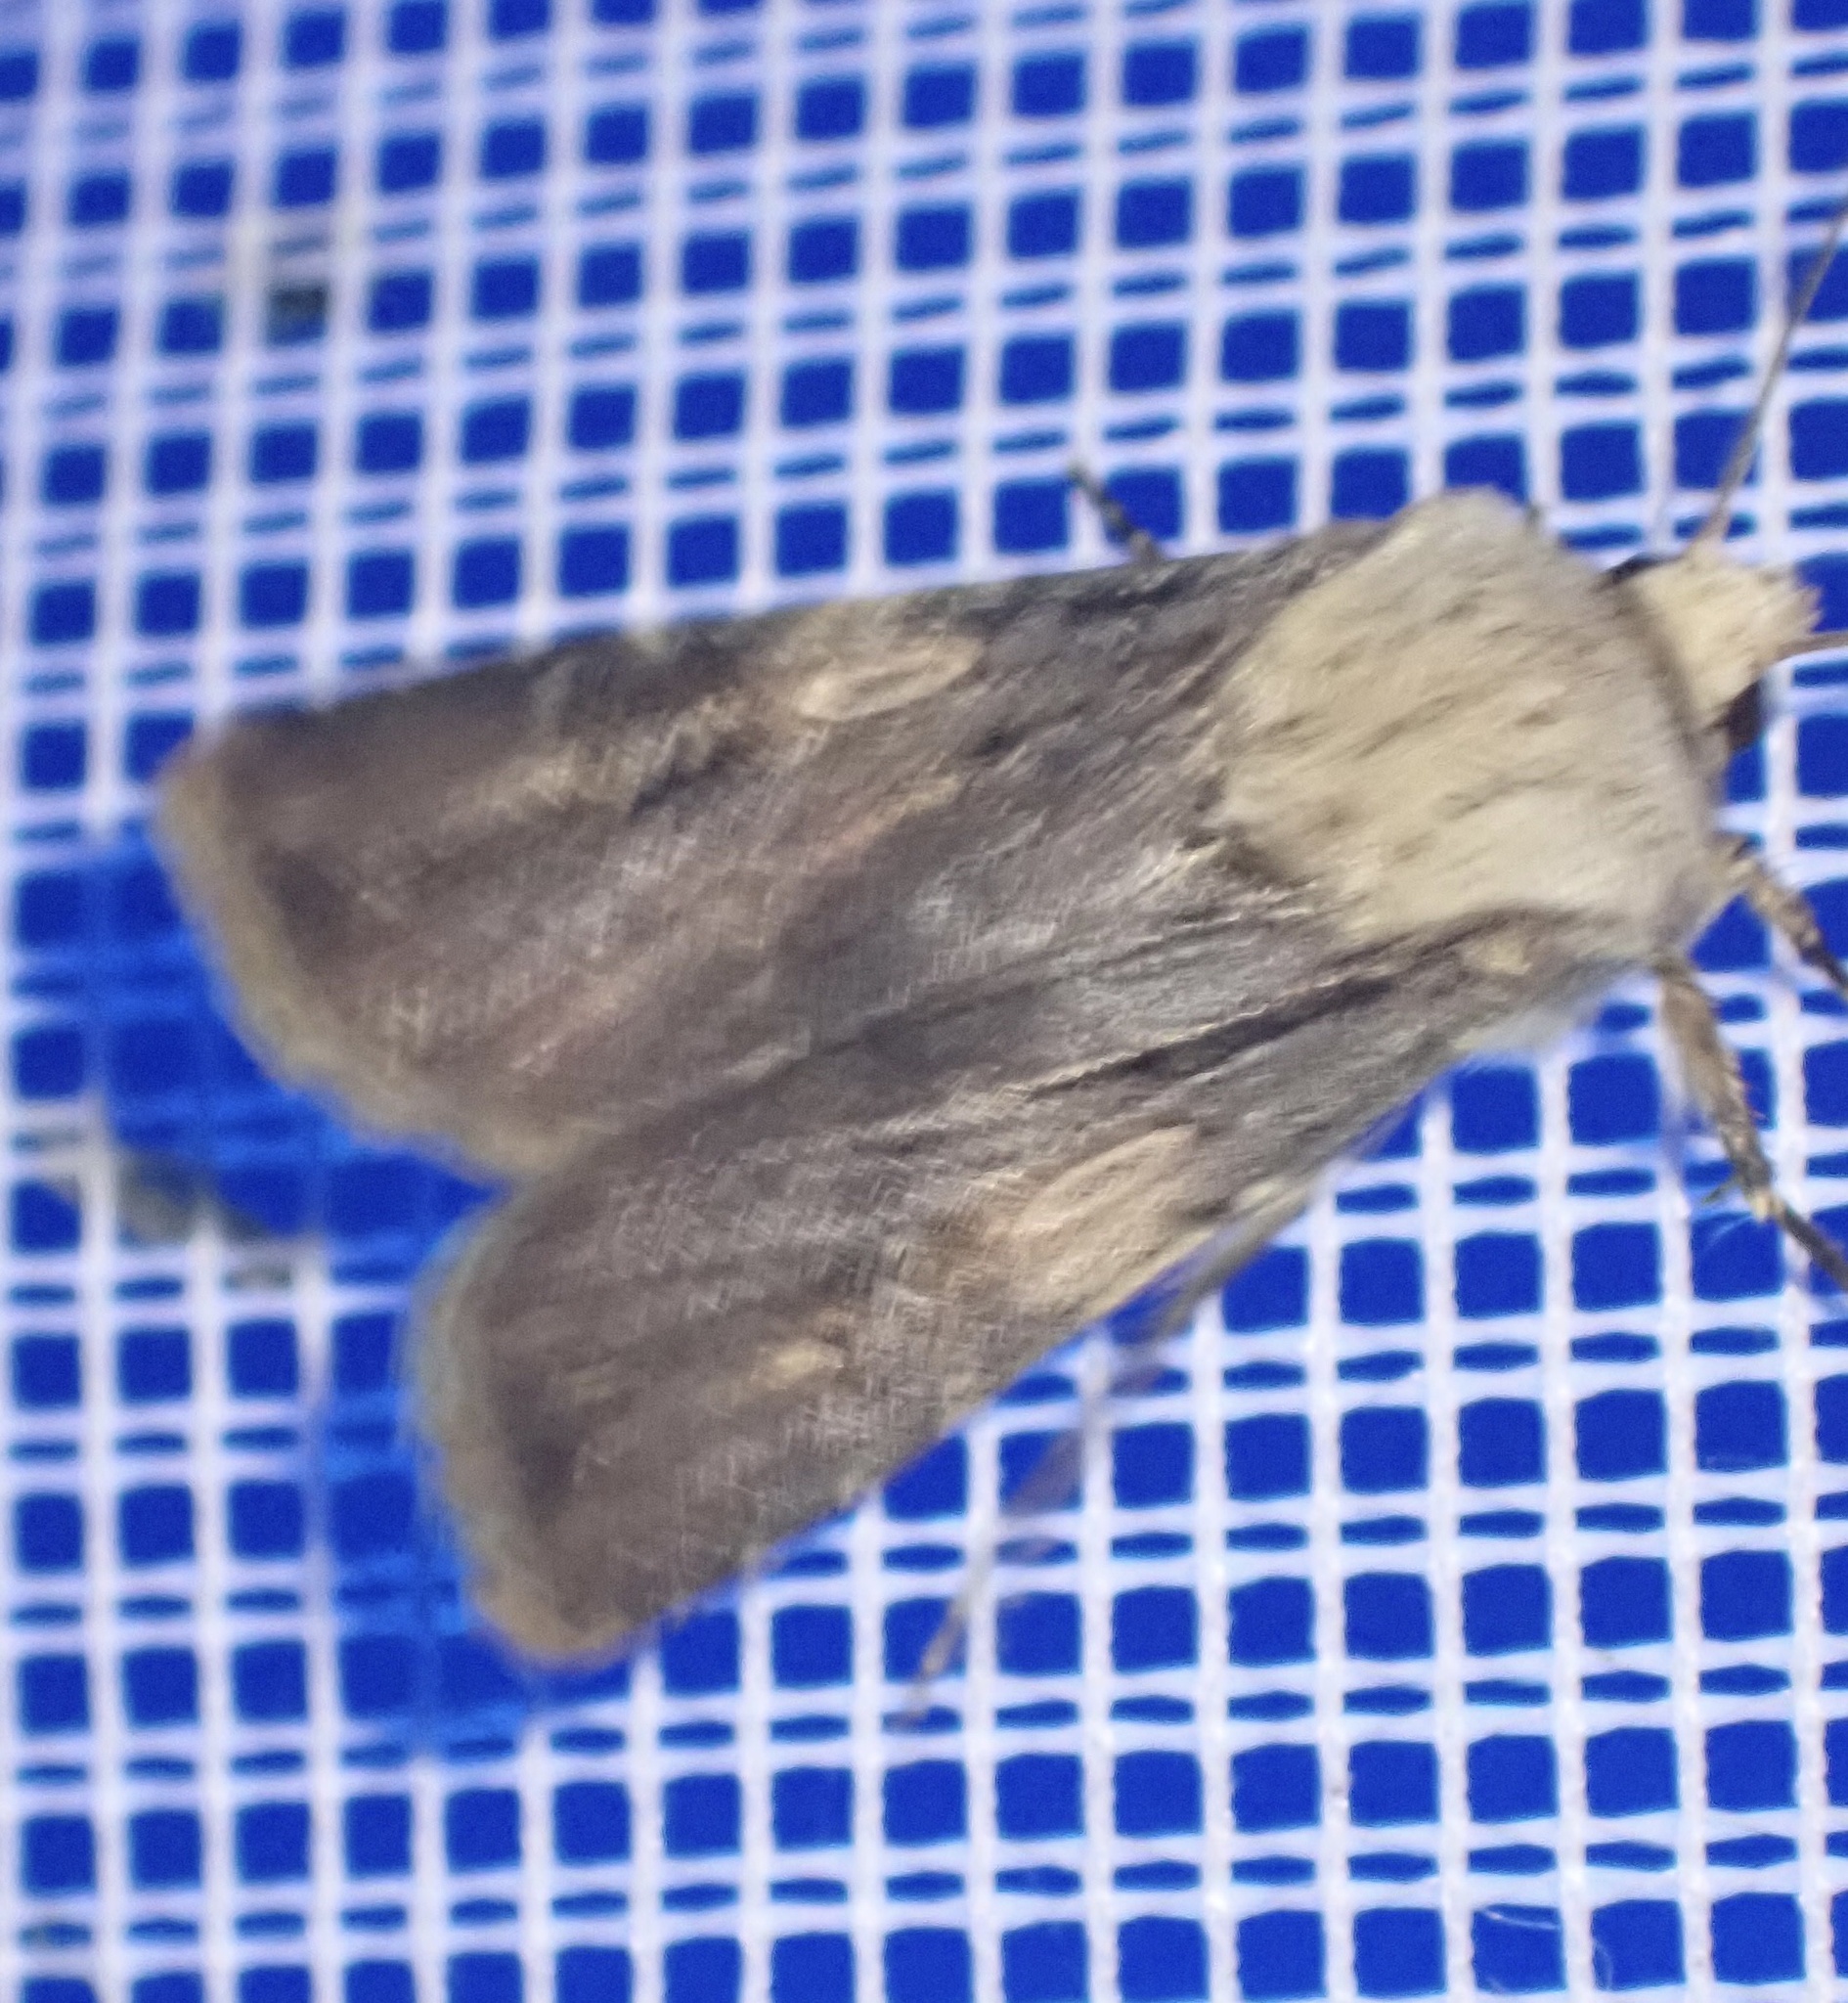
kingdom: Animalia
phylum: Arthropoda
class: Insecta
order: Lepidoptera
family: Noctuidae
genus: Agrotis
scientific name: Agrotis puta
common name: Shuttle-shaped dart
